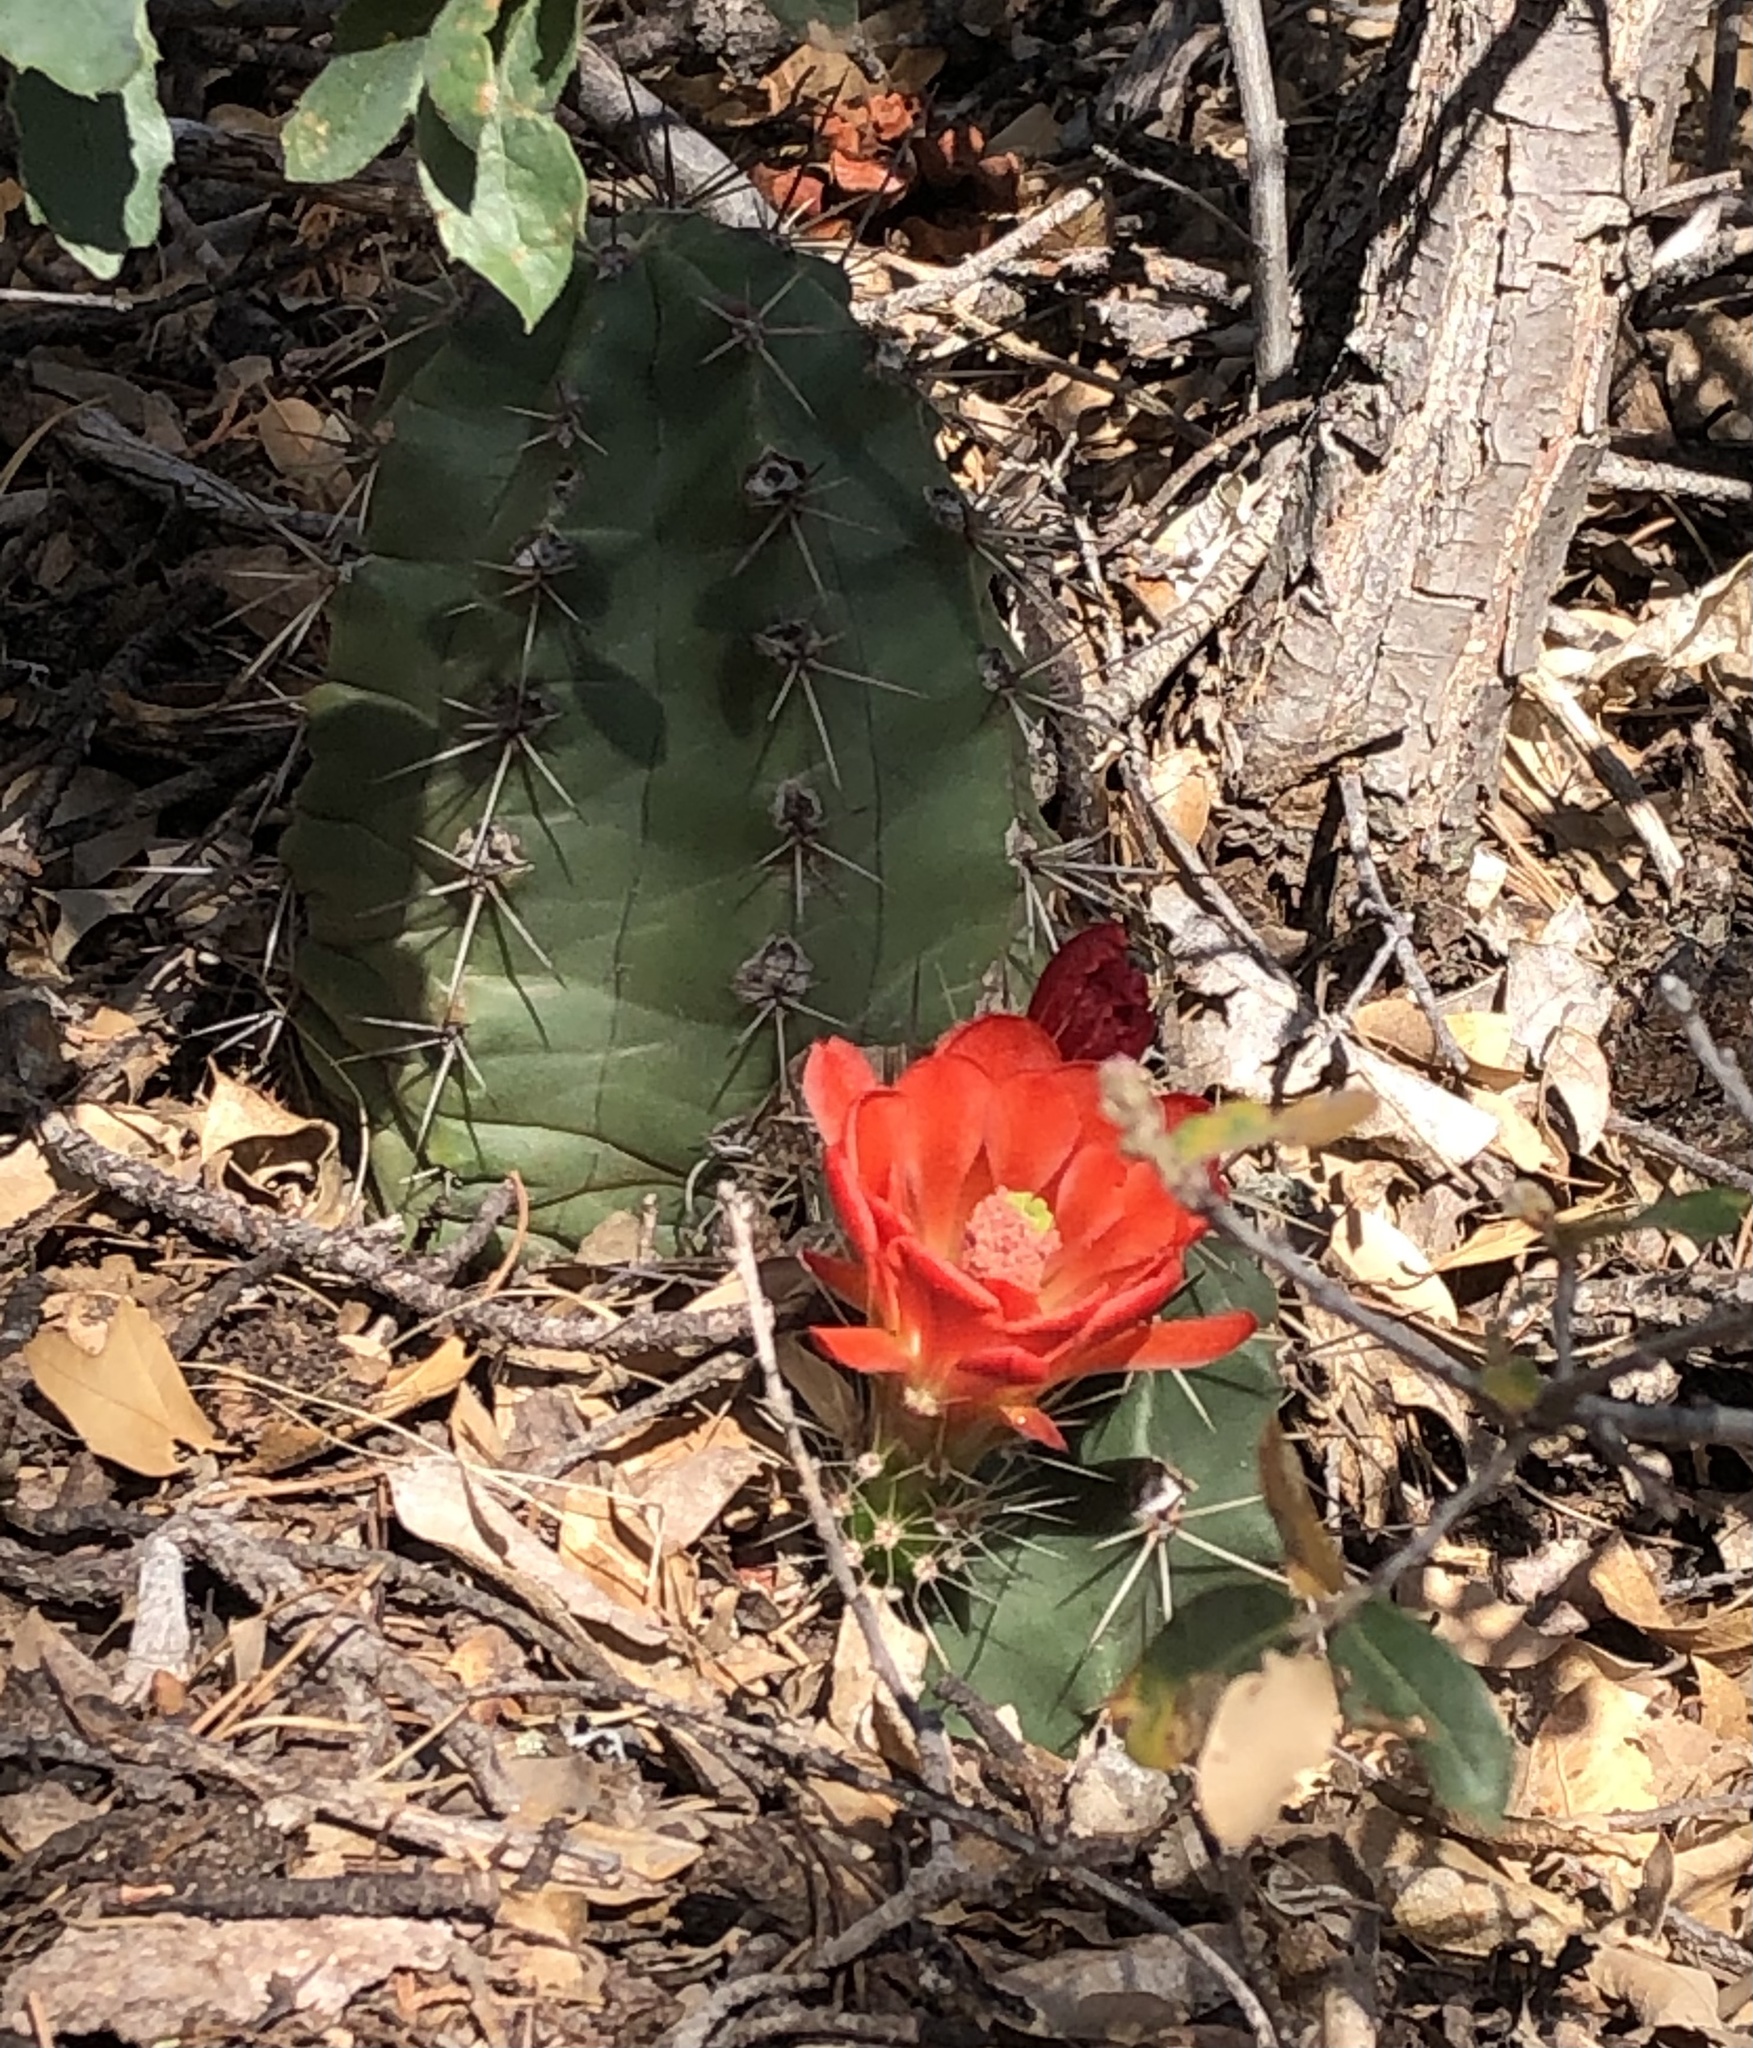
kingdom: Plantae
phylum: Tracheophyta
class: Magnoliopsida
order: Caryophyllales
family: Cactaceae
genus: Echinocereus
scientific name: Echinocereus coccineus
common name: Scarlet hedgehog cactus
